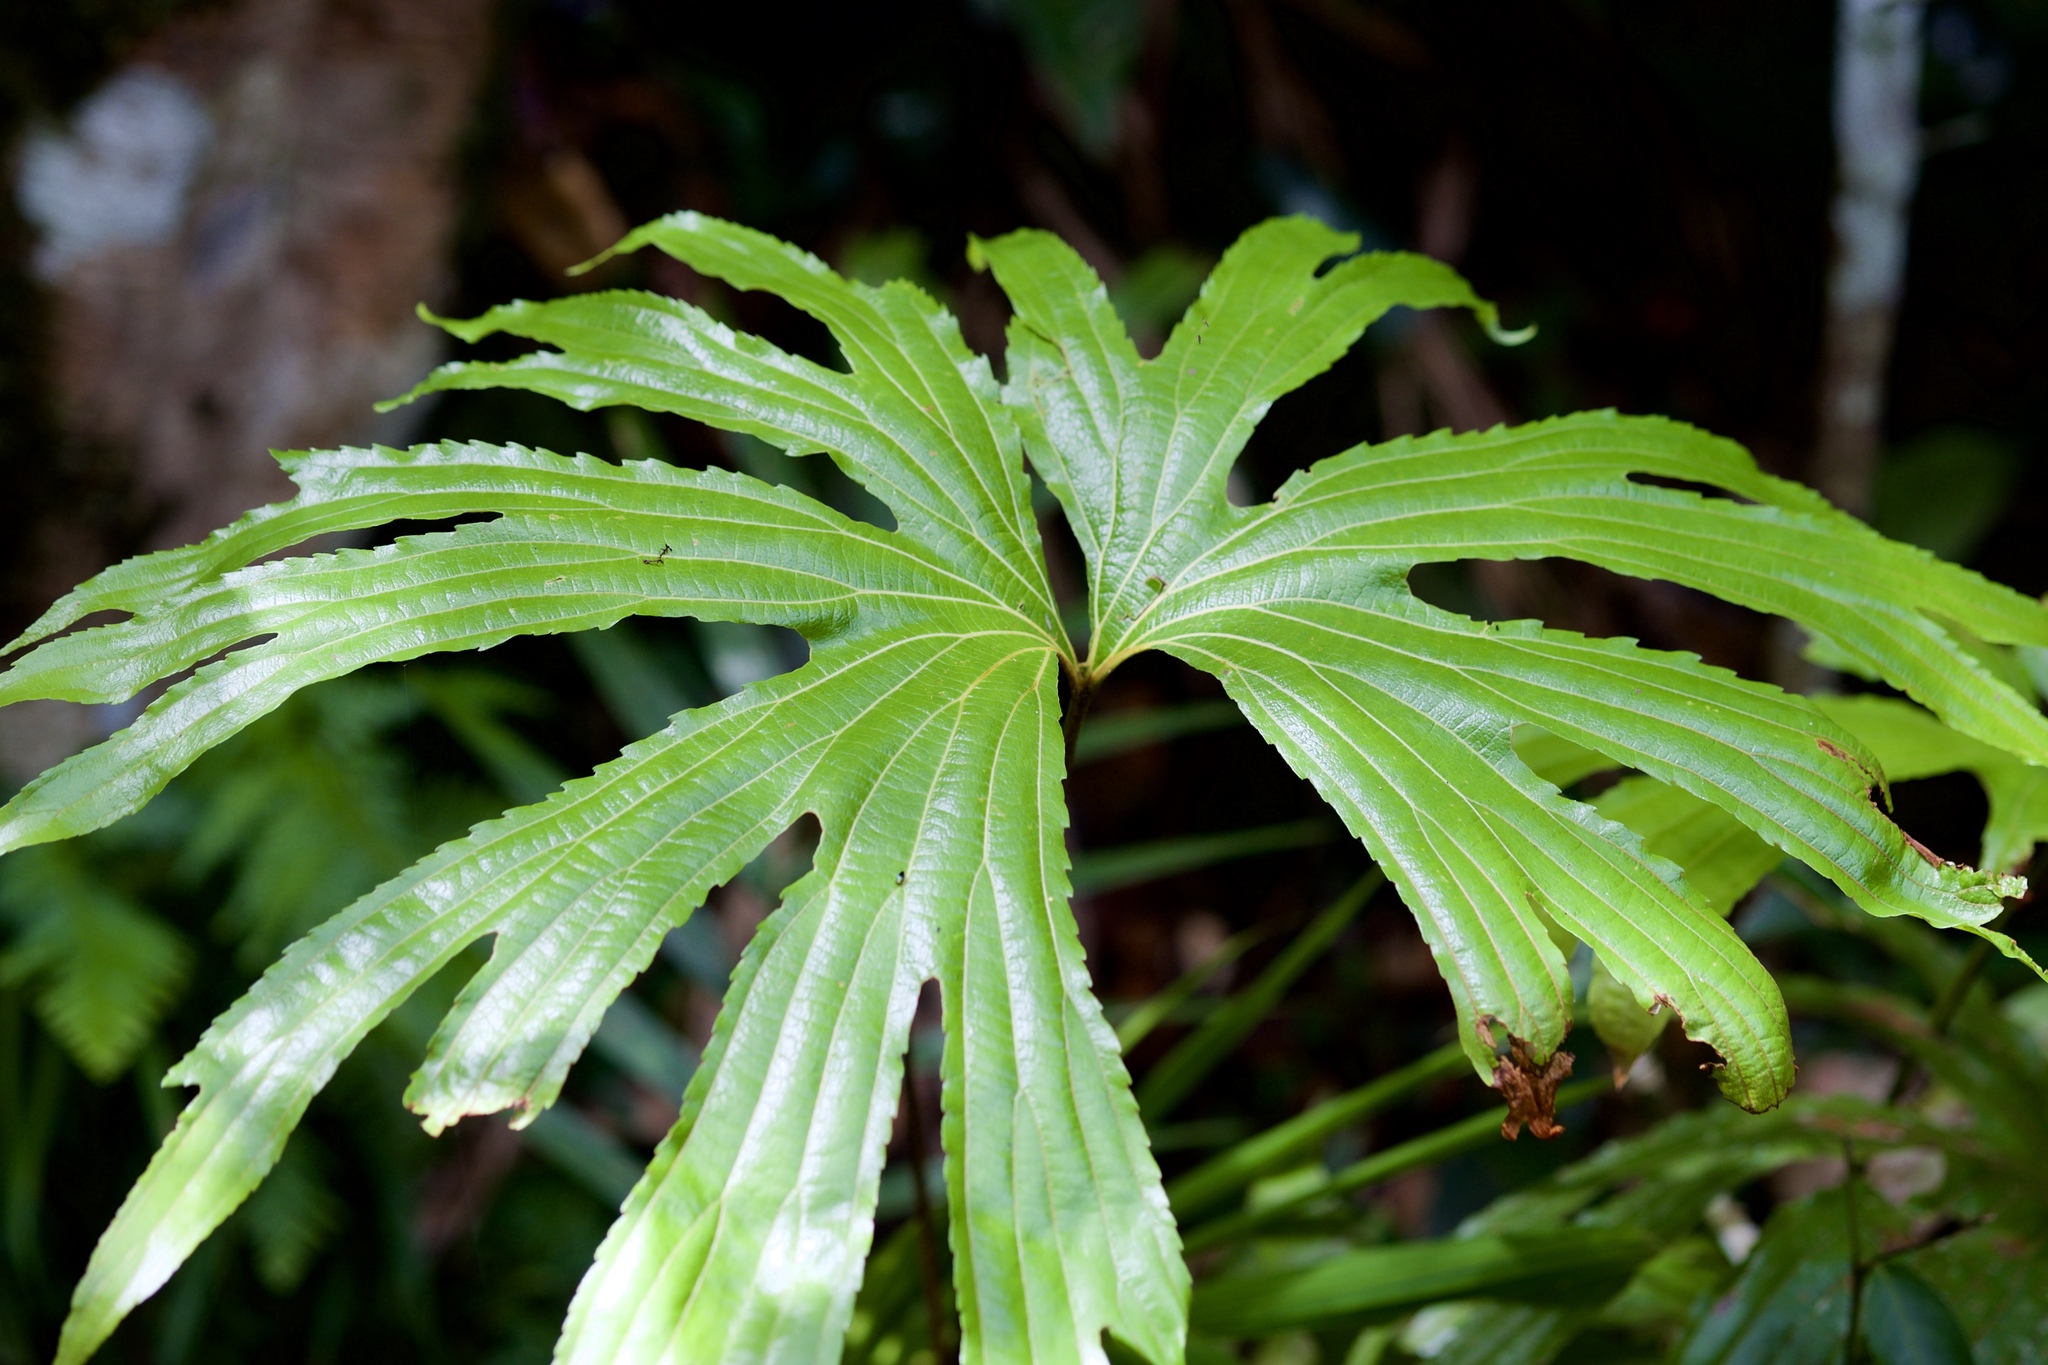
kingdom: Plantae
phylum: Tracheophyta
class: Polypodiopsida
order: Gleicheniales
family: Dipteridaceae
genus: Dipteris
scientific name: Dipteris conjugata
